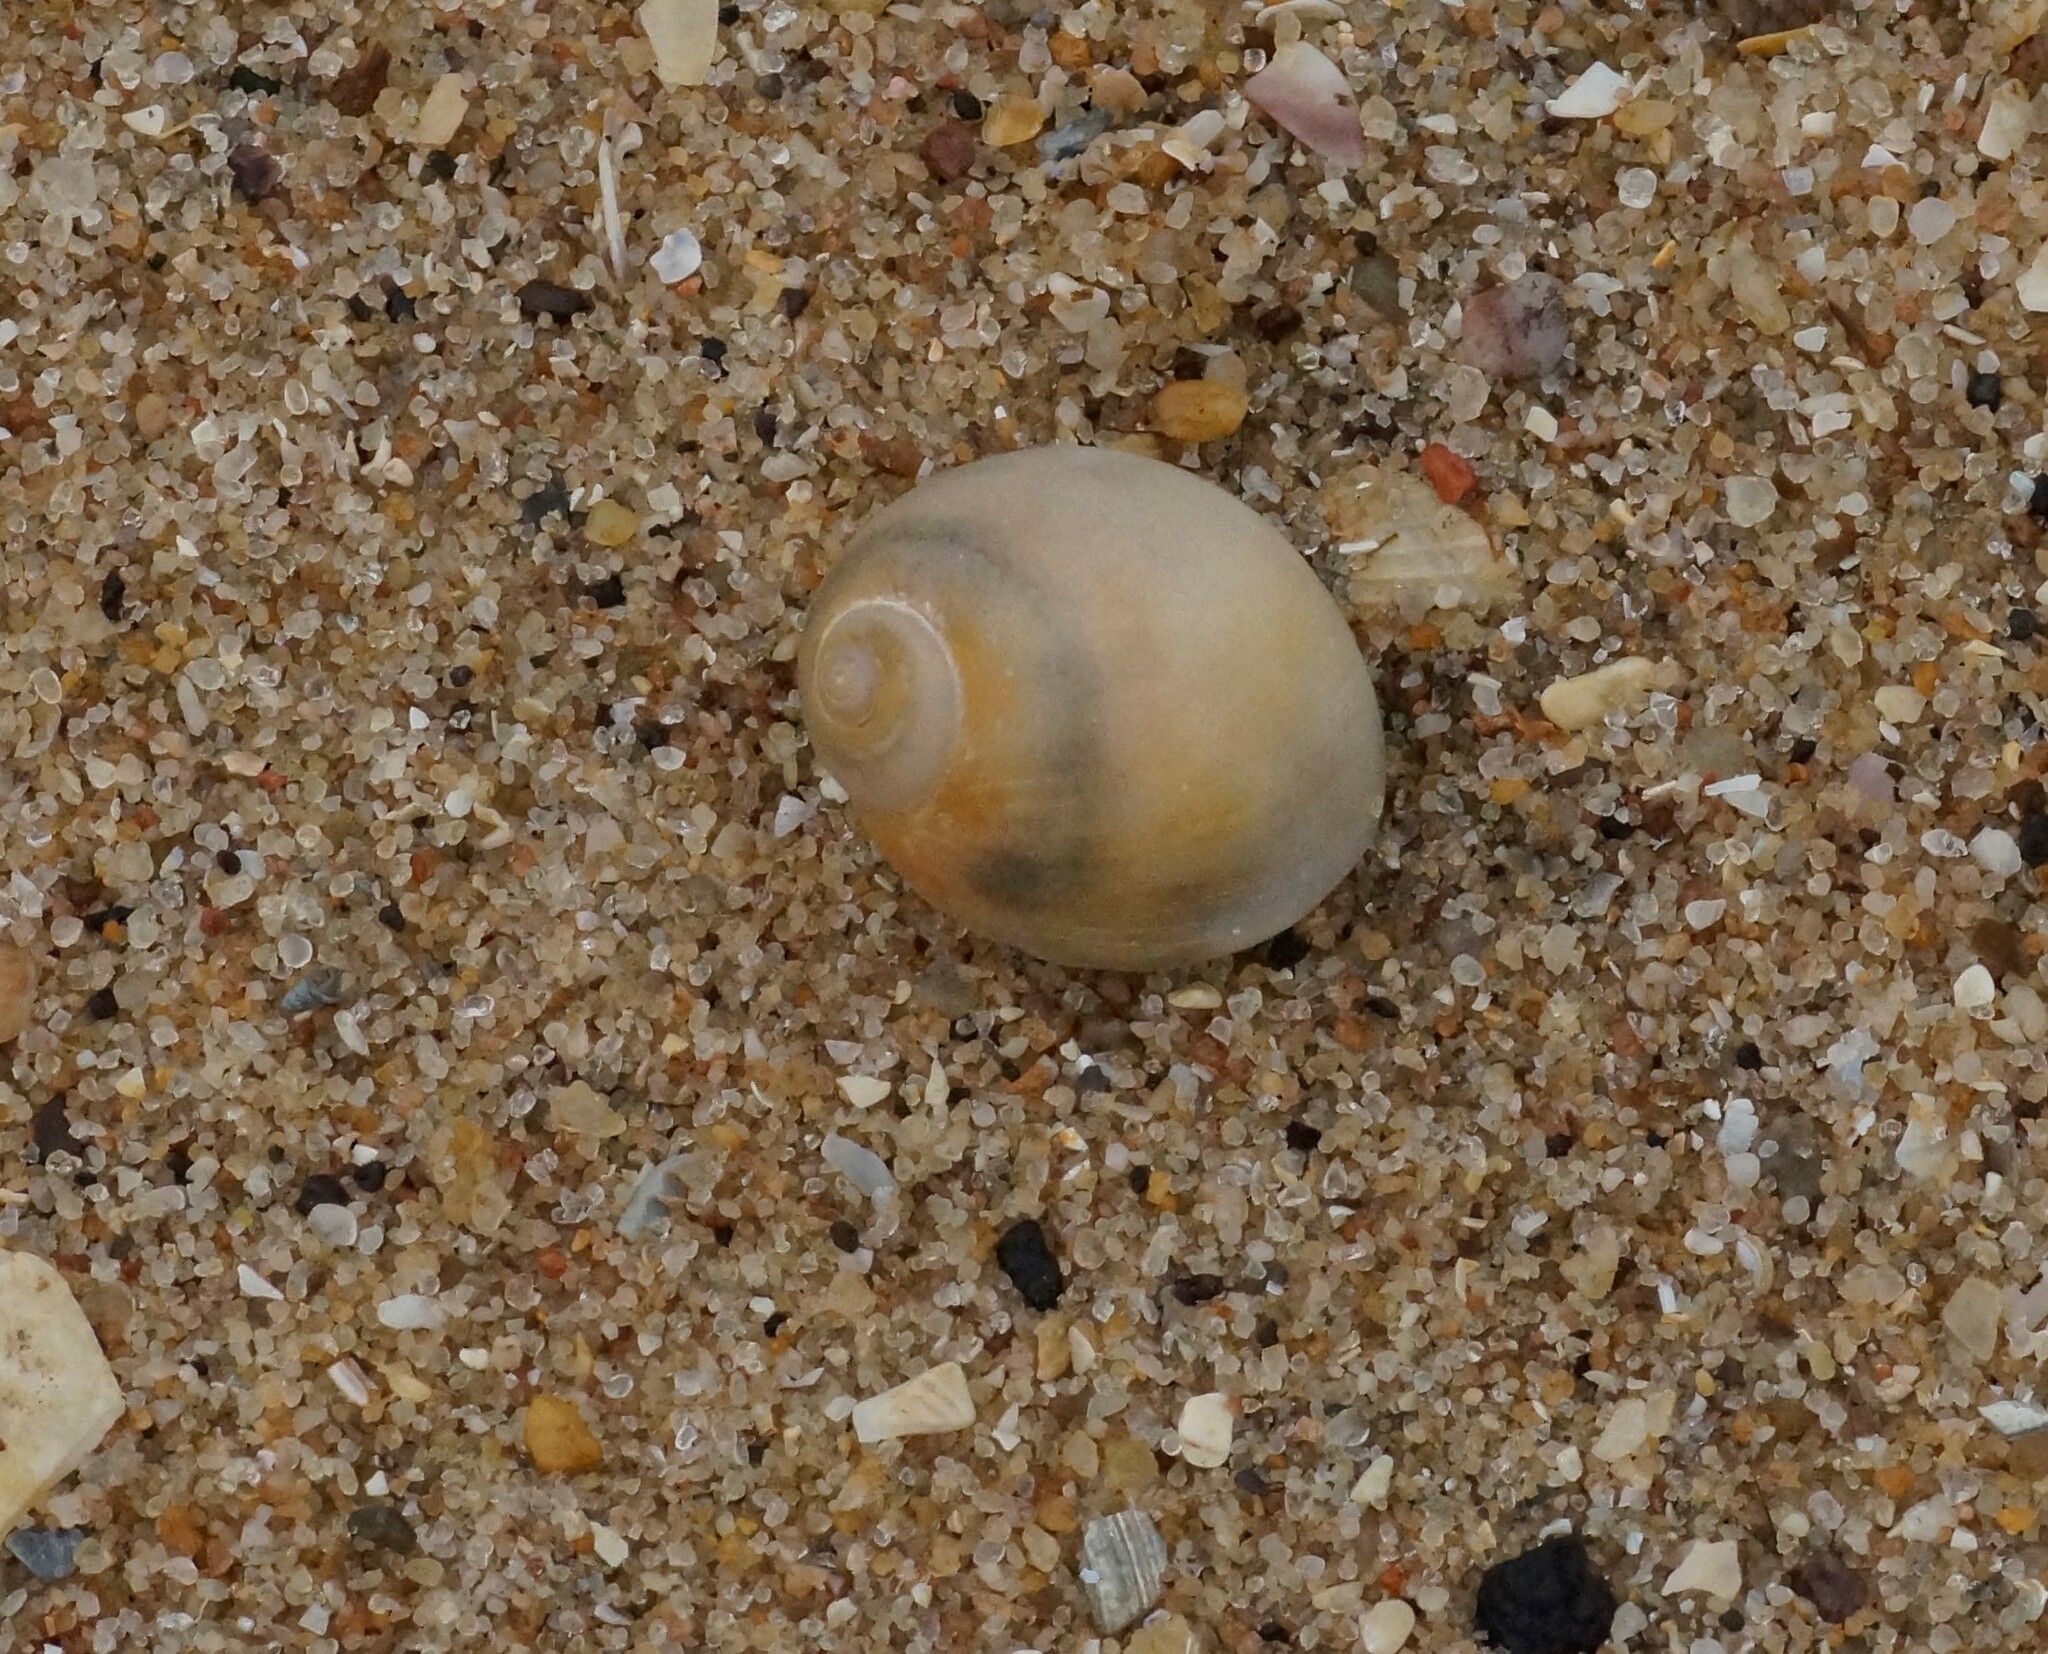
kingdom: Animalia
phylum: Mollusca
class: Gastropoda
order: Littorinimorpha
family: Naticidae
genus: Conuber
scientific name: Conuber conicum
